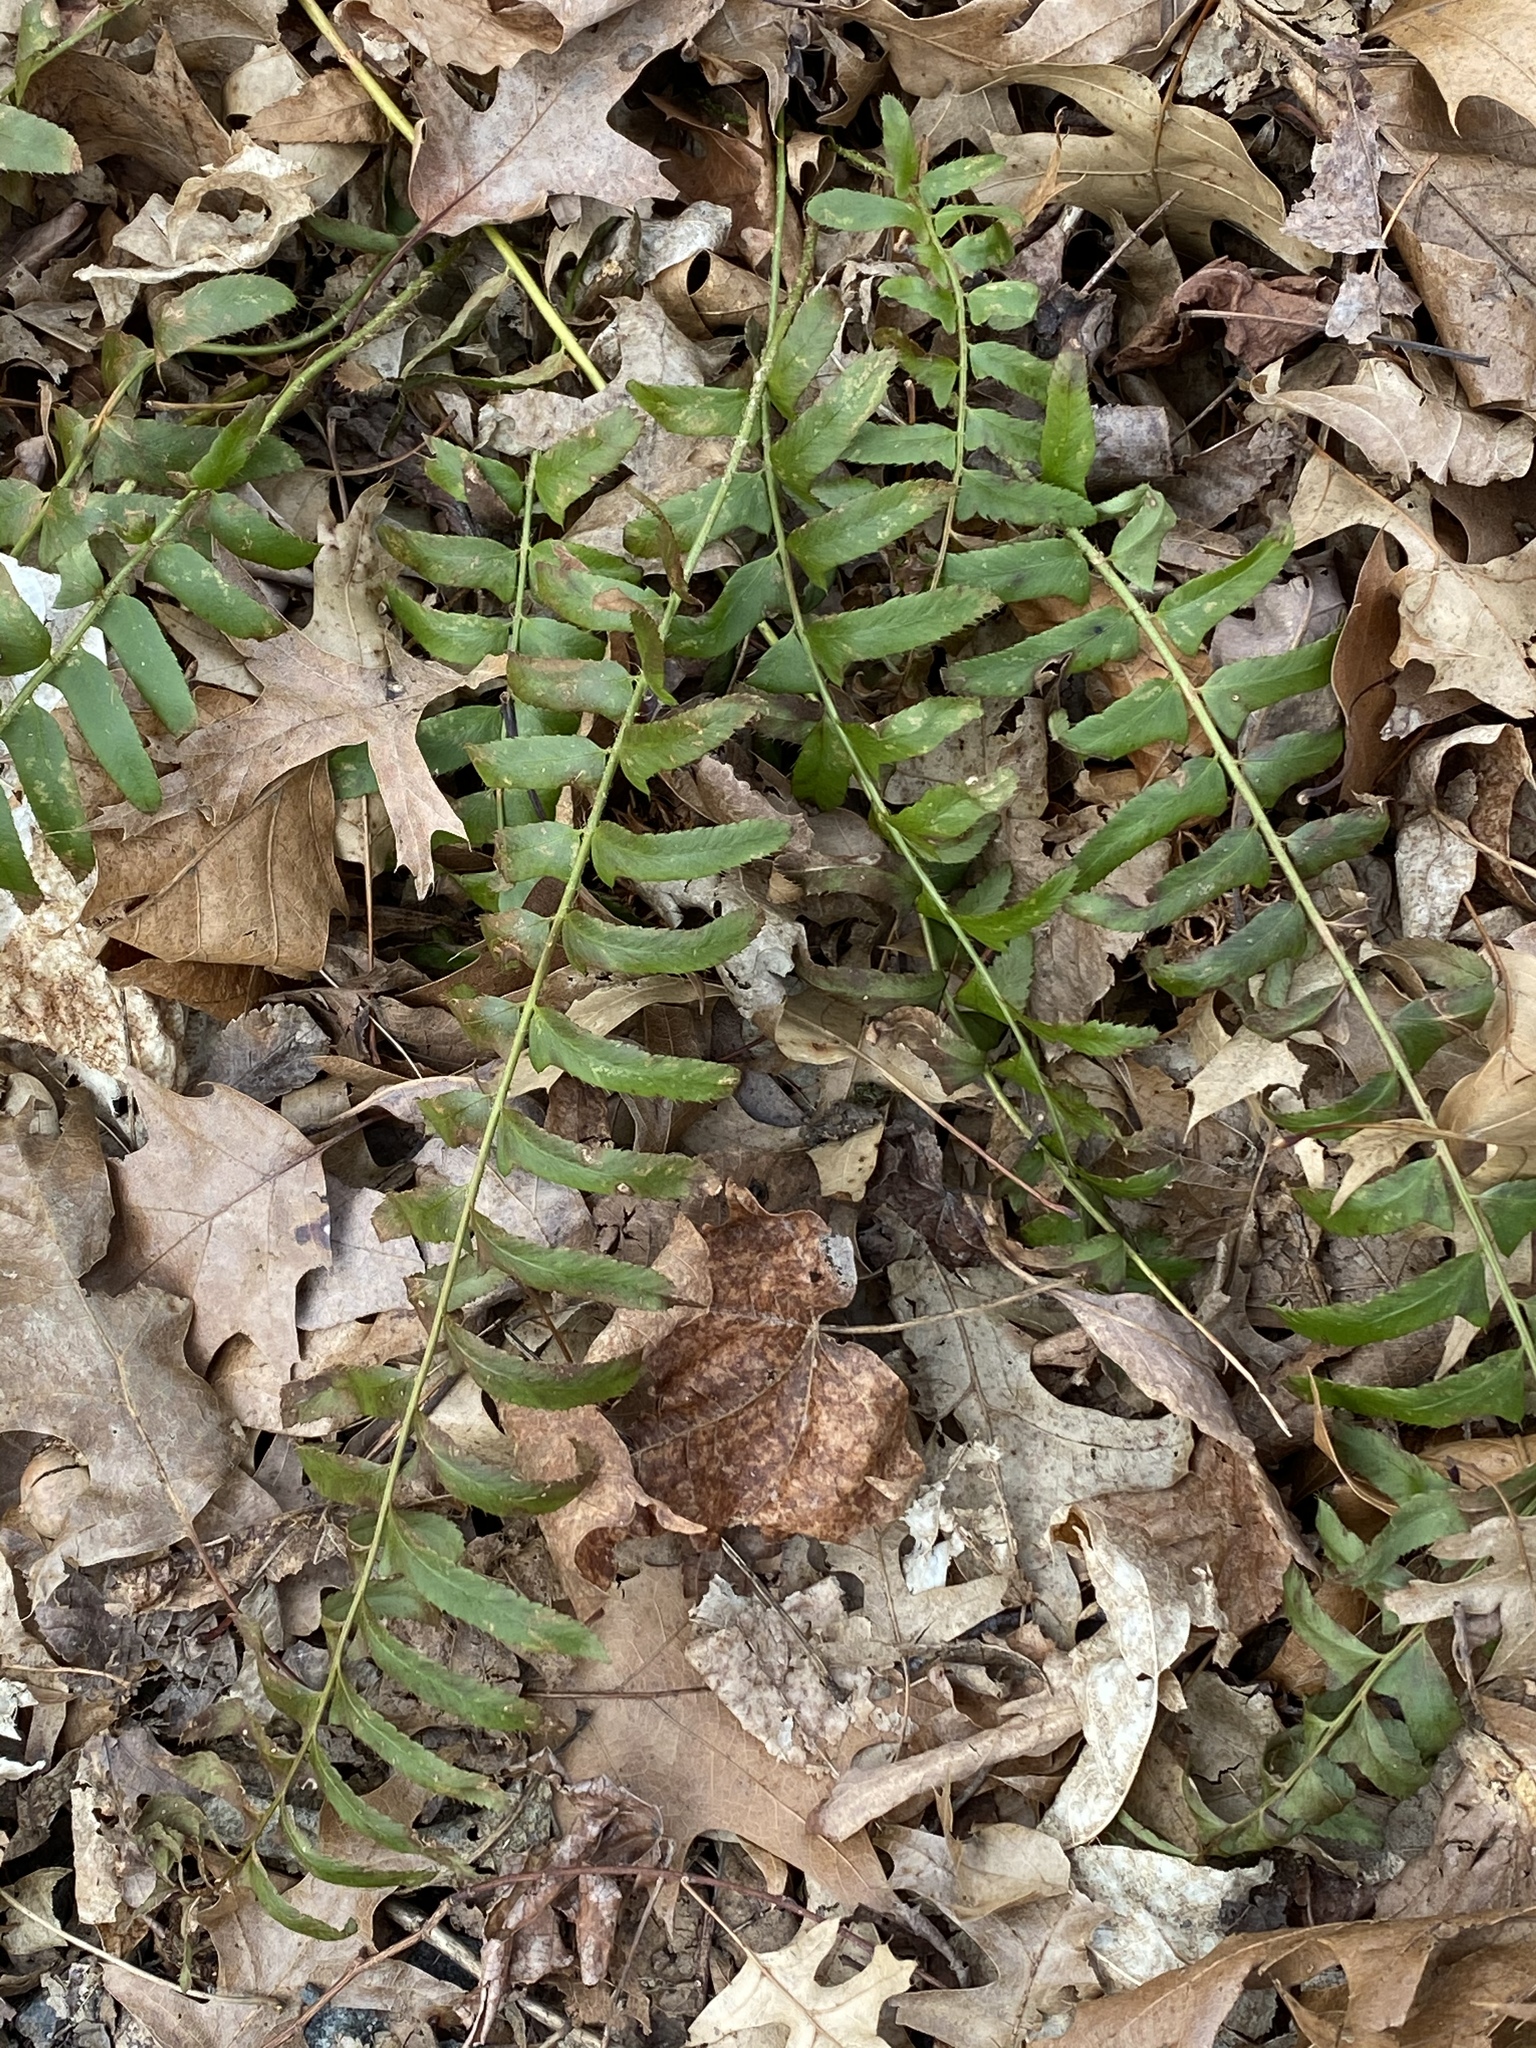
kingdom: Plantae
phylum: Tracheophyta
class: Polypodiopsida
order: Polypodiales
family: Dryopteridaceae
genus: Polystichum
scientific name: Polystichum acrostichoides
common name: Christmas fern
